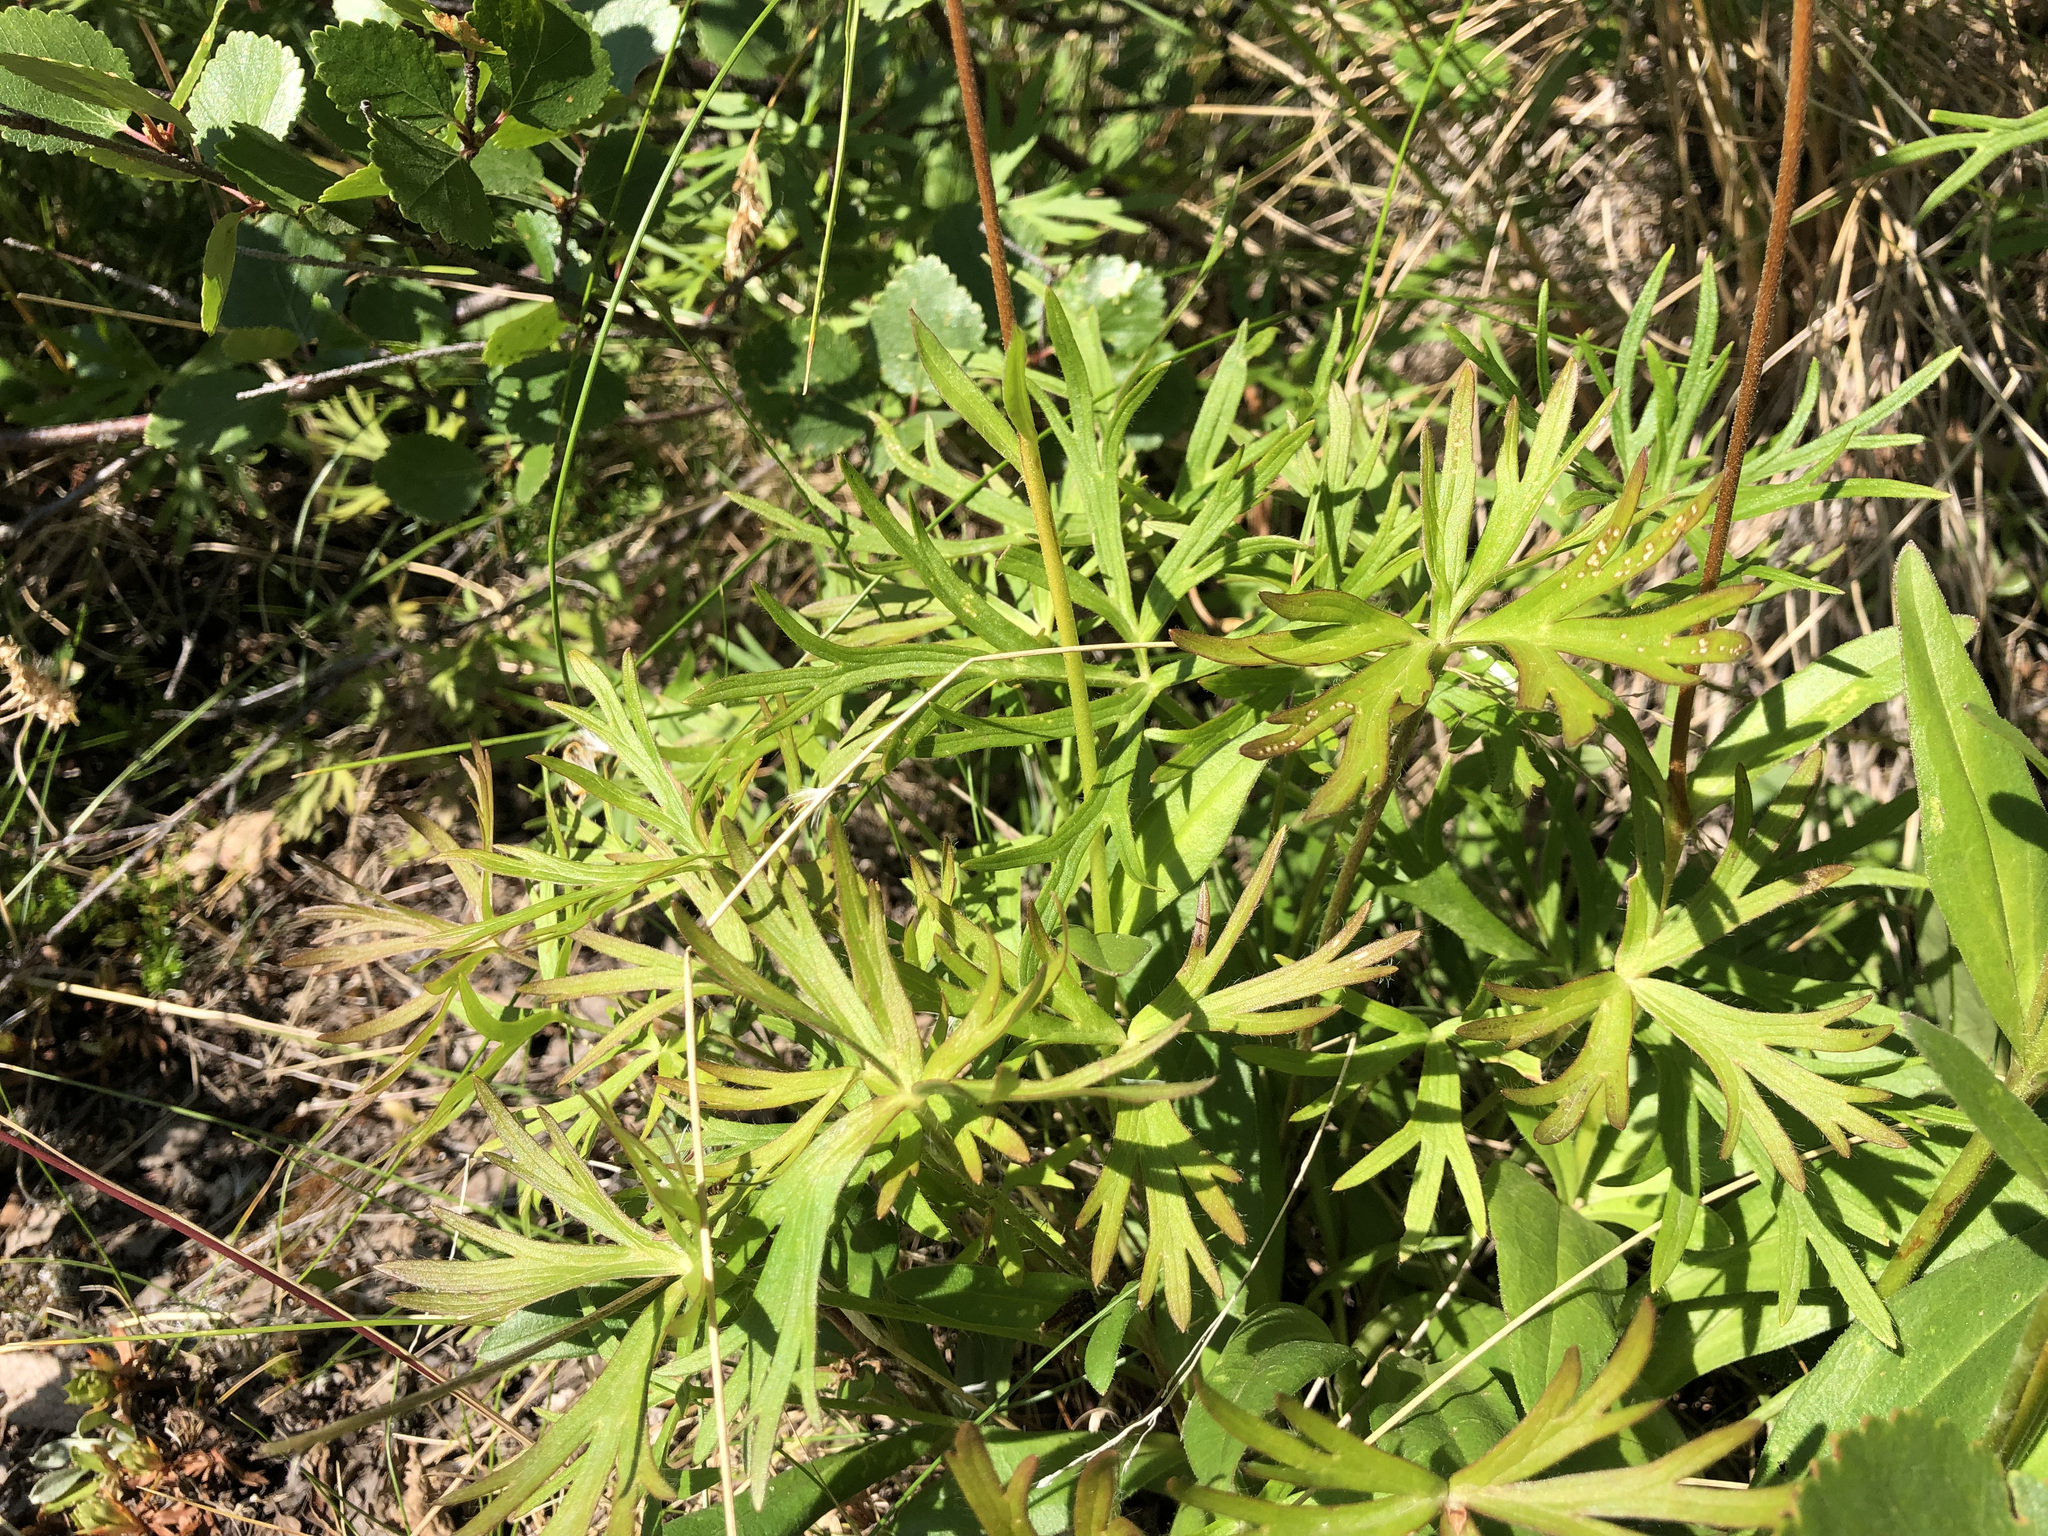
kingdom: Plantae
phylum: Tracheophyta
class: Magnoliopsida
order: Ranunculales
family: Ranunculaceae
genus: Pulsatilla
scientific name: Pulsatilla nuttalliana
